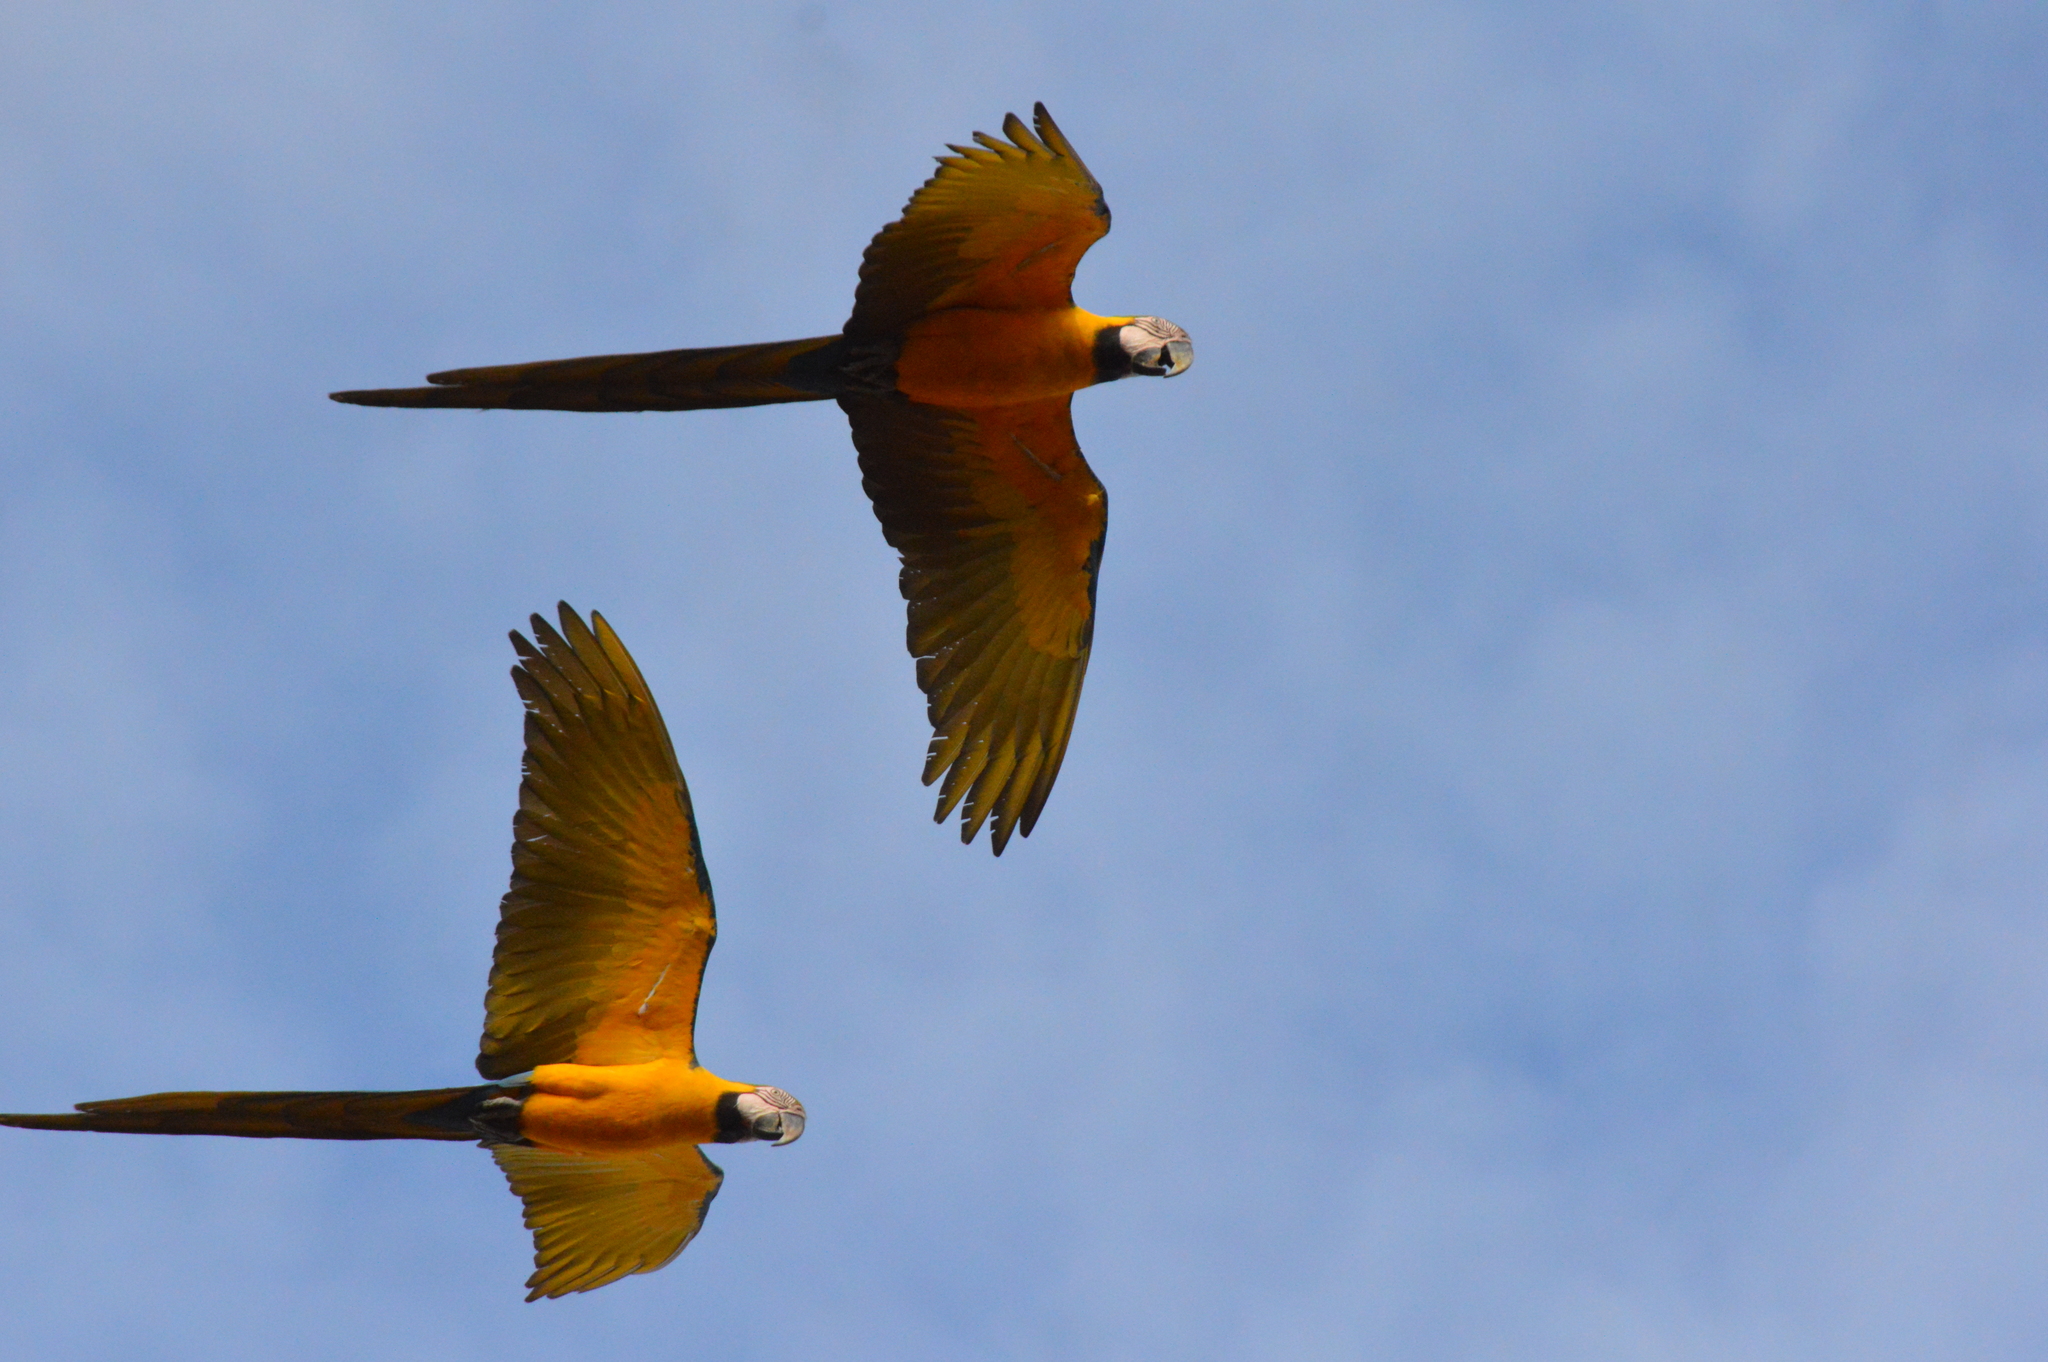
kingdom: Animalia
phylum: Chordata
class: Aves
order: Psittaciformes
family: Psittacidae
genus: Ara
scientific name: Ara ararauna
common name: Blue-and-yellow macaw
